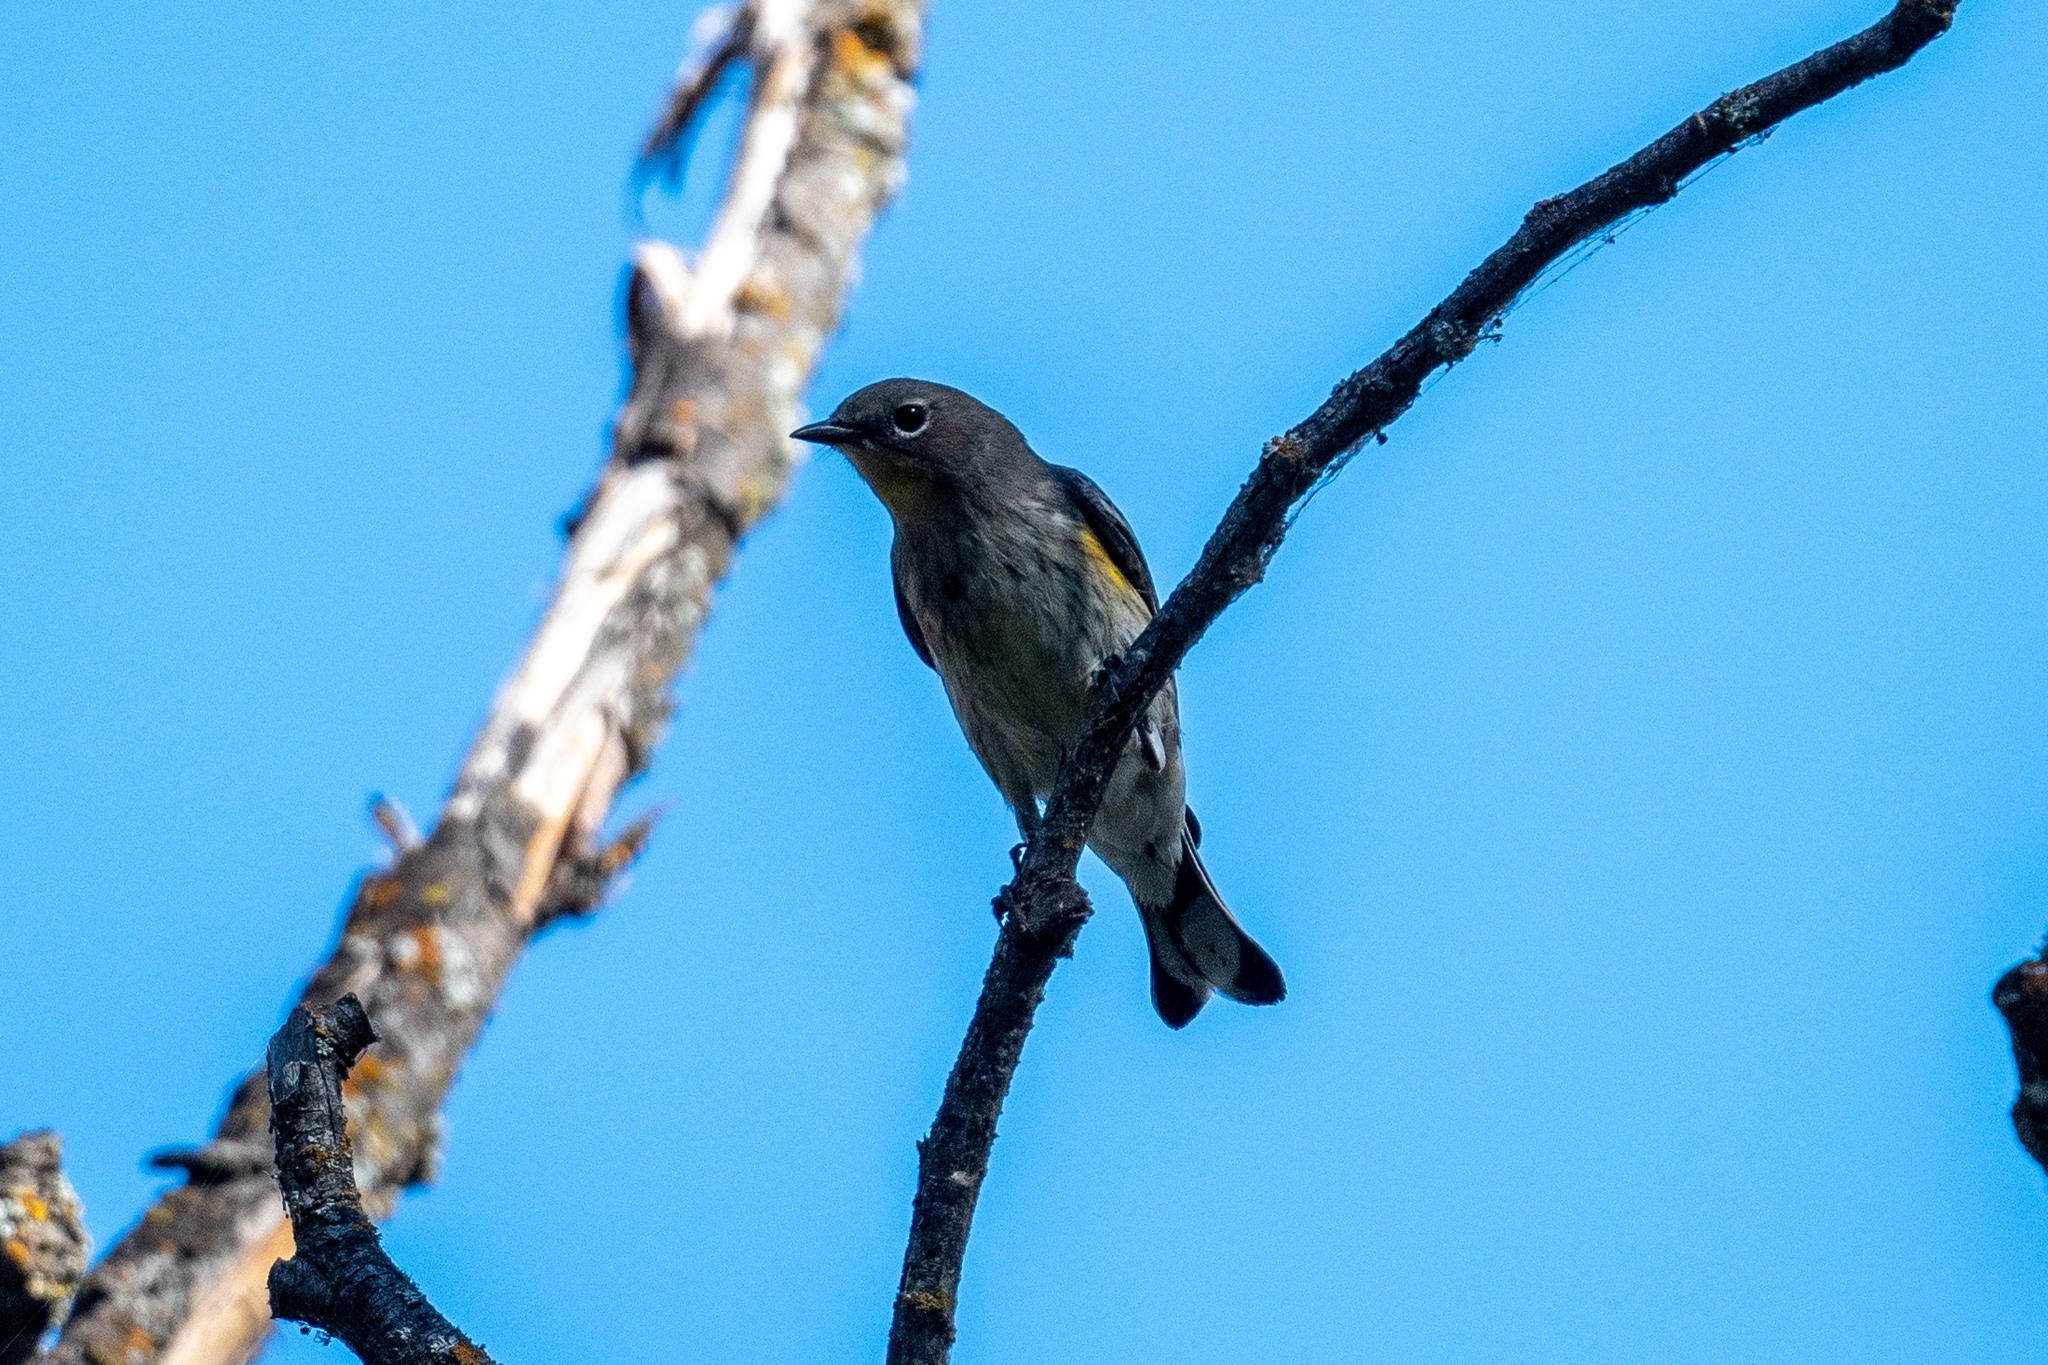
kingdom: Animalia
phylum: Chordata
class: Aves
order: Passeriformes
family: Parulidae
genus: Setophaga
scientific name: Setophaga coronata
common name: Myrtle warbler
